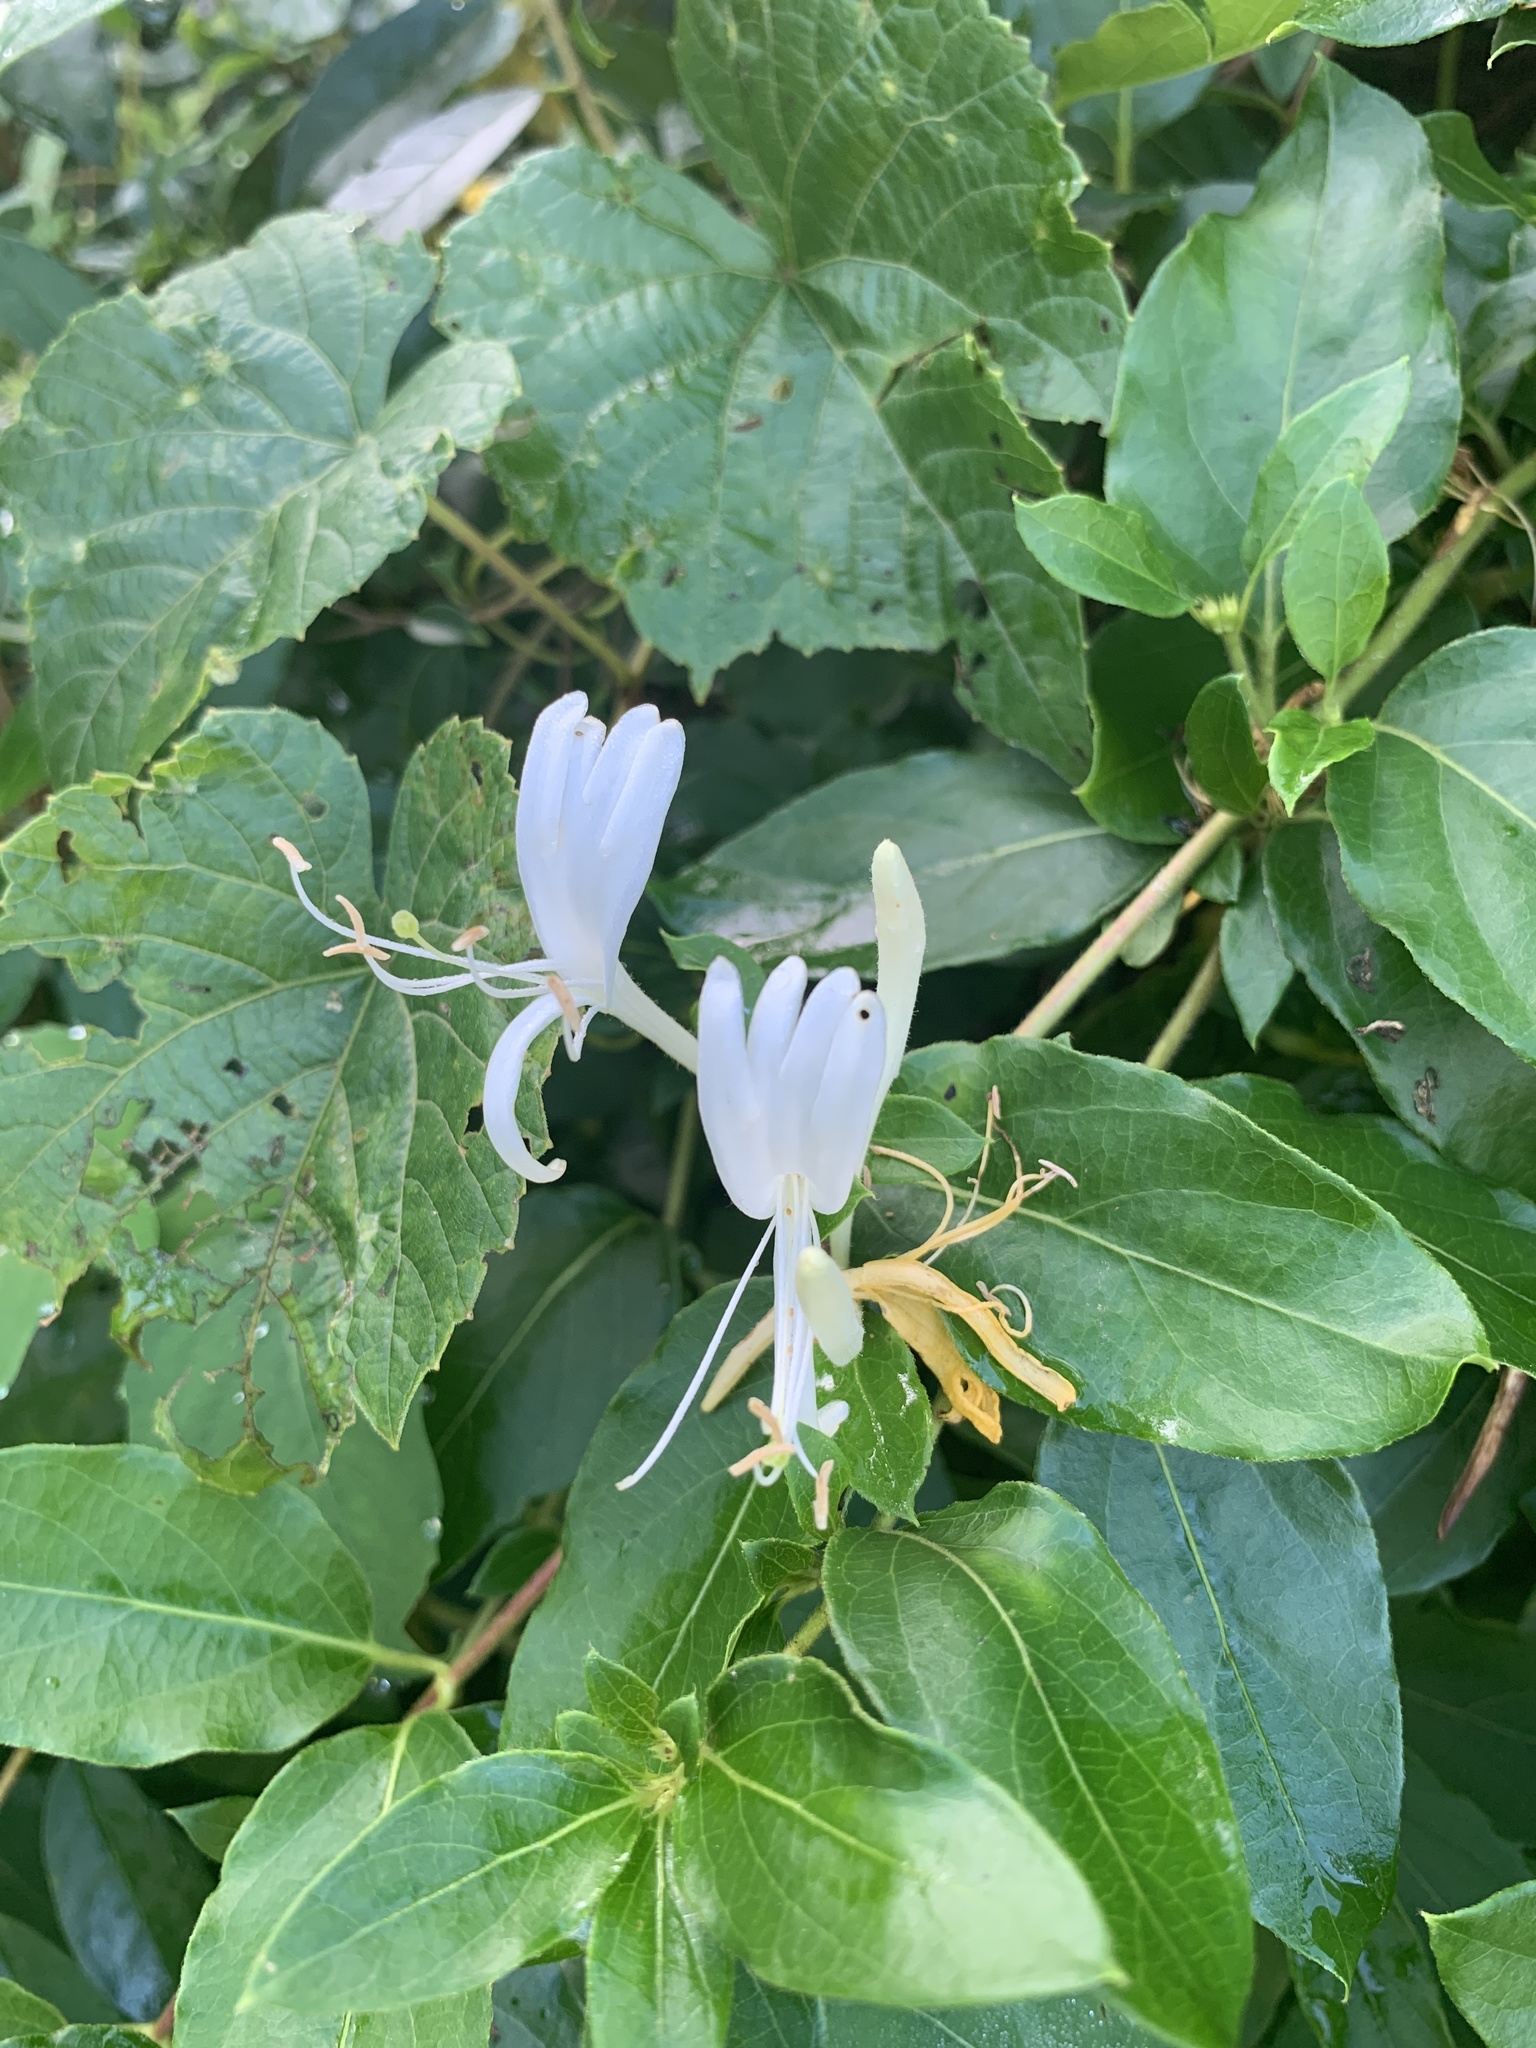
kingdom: Plantae
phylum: Tracheophyta
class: Magnoliopsida
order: Dipsacales
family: Caprifoliaceae
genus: Lonicera
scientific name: Lonicera japonica
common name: Japanese honeysuckle
